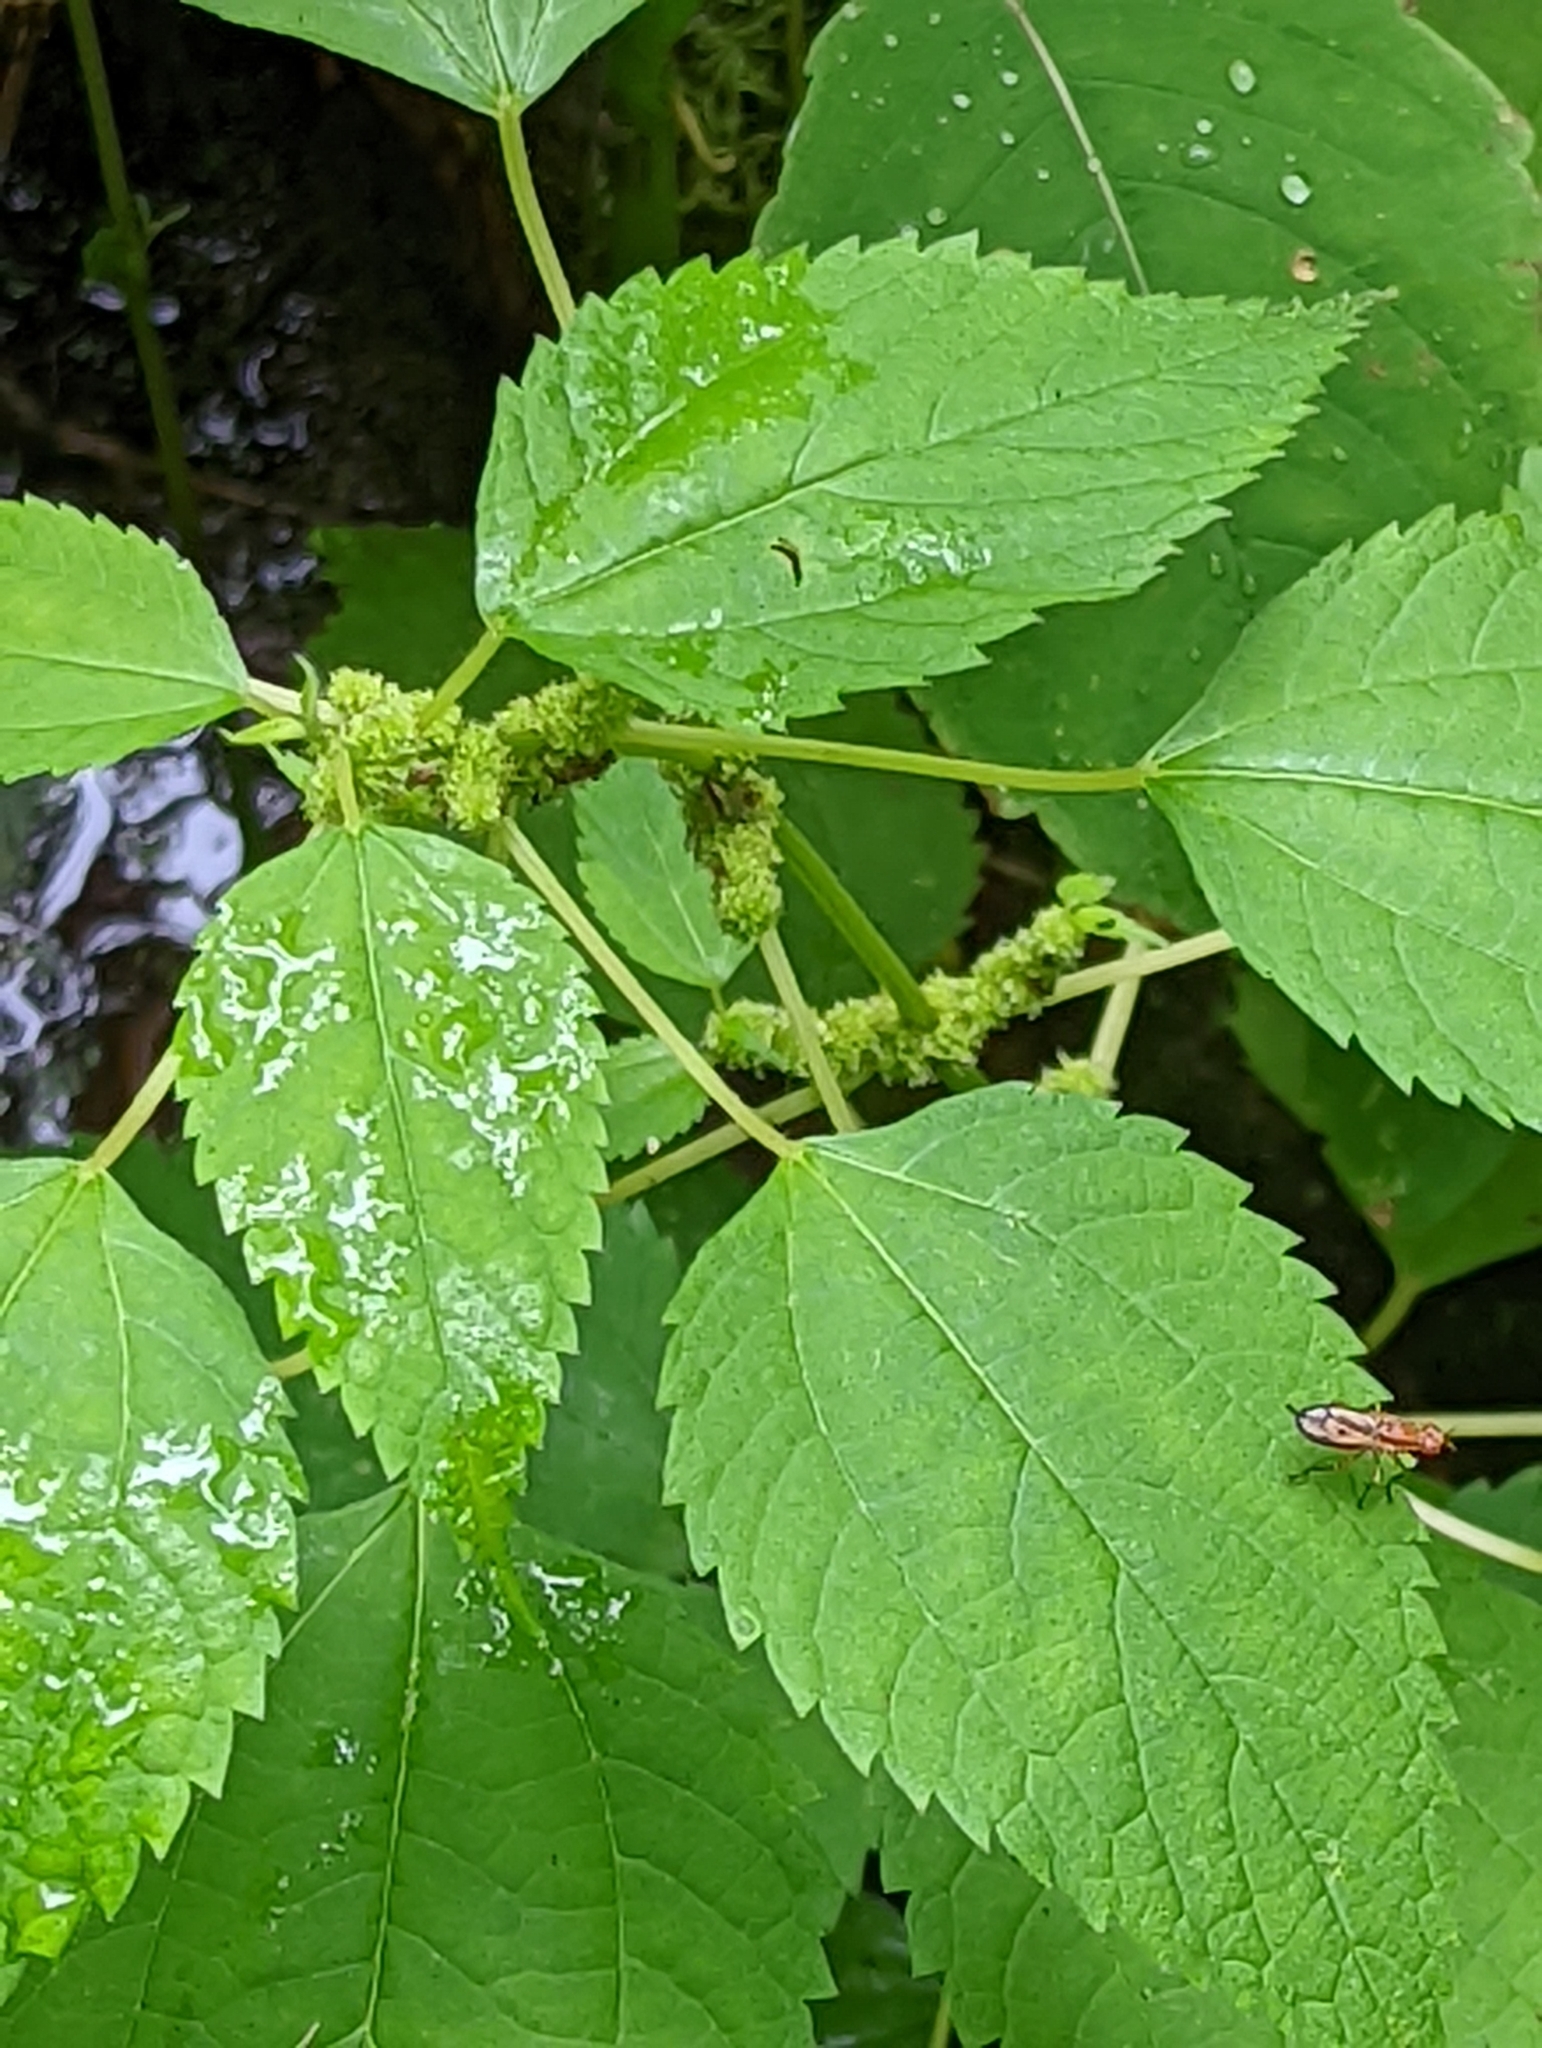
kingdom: Plantae
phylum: Tracheophyta
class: Magnoliopsida
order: Rosales
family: Urticaceae
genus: Boehmeria
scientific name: Boehmeria cylindrica
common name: Bog-hemp
